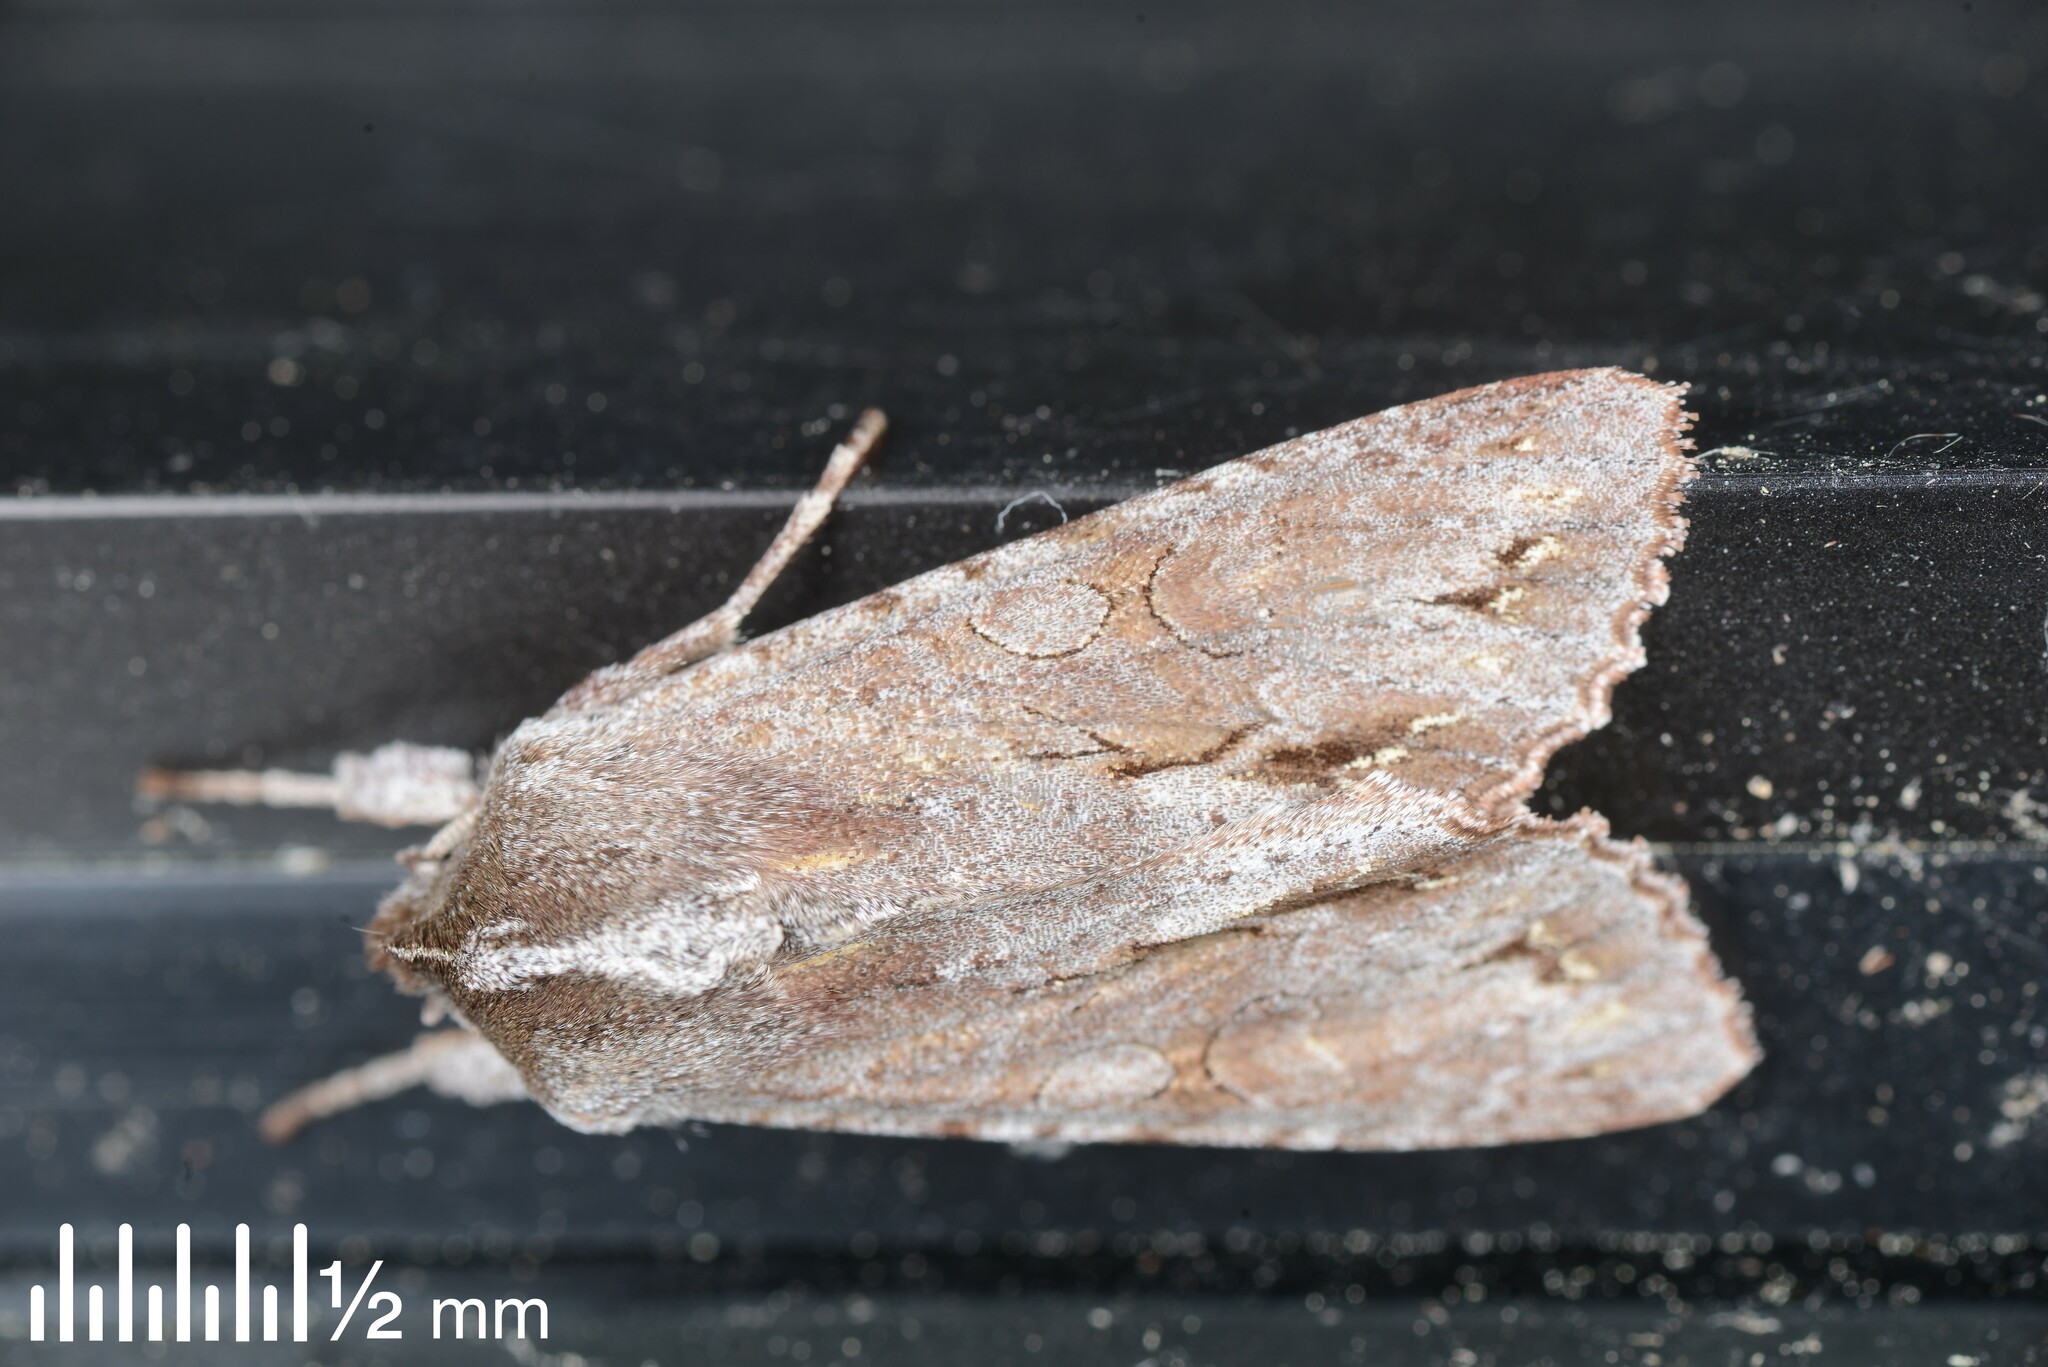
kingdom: Animalia
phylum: Arthropoda
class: Insecta
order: Lepidoptera
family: Noctuidae
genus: Ichneutica
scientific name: Ichneutica
